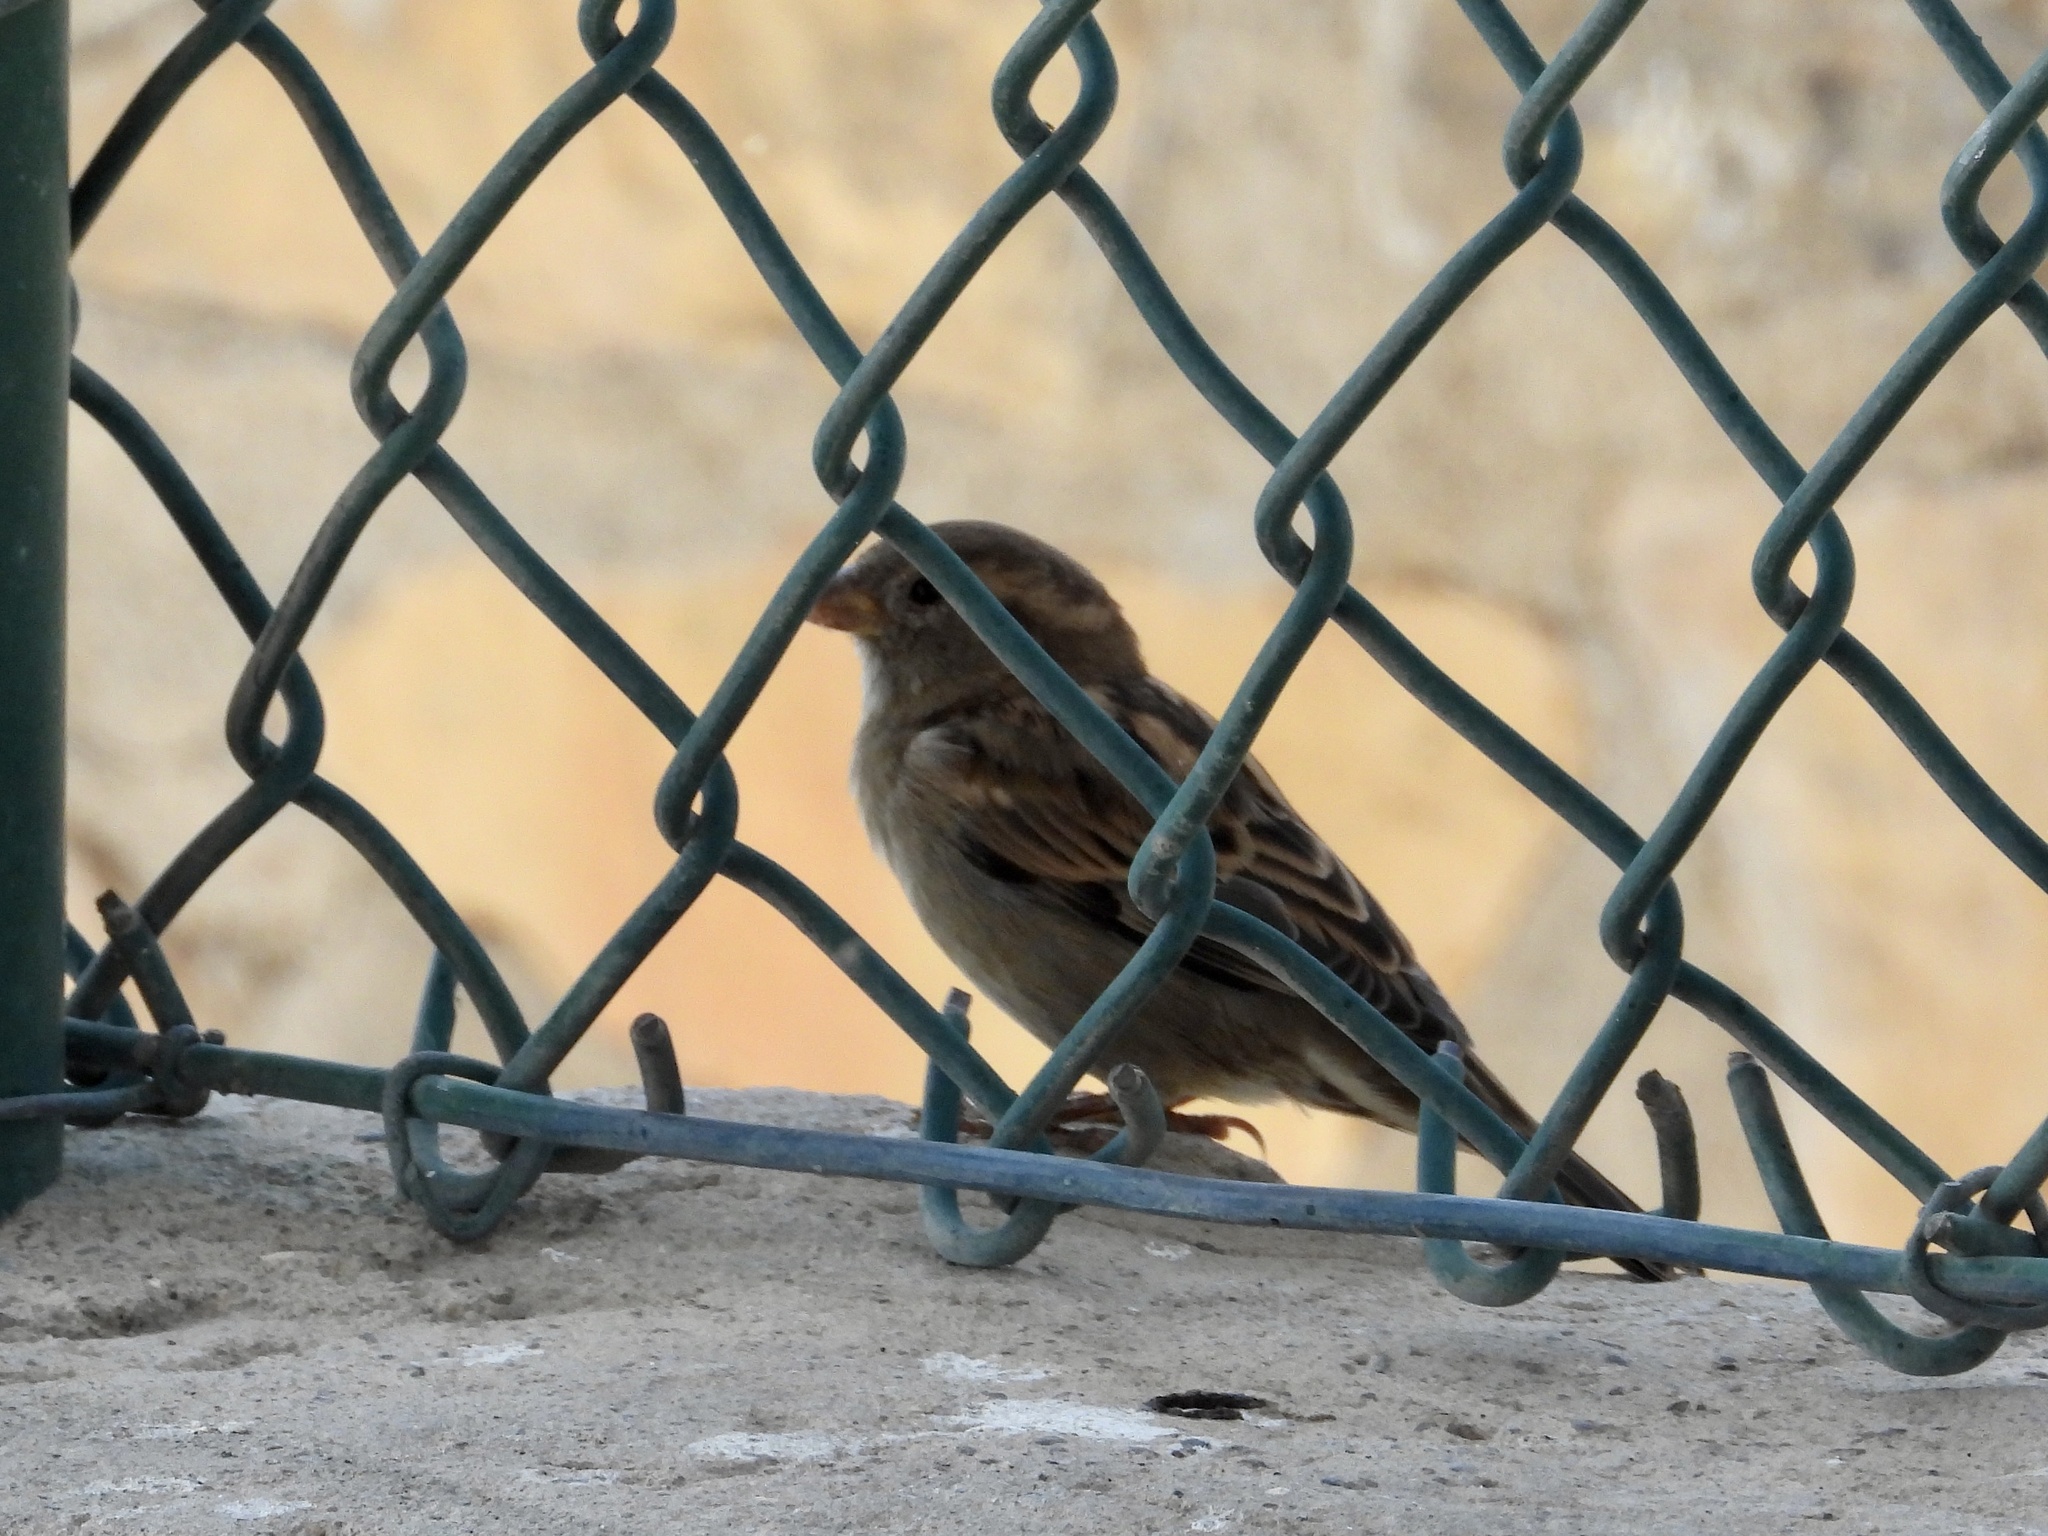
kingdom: Animalia
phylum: Chordata
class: Aves
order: Passeriformes
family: Passeridae
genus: Passer
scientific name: Passer domesticus
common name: House sparrow
